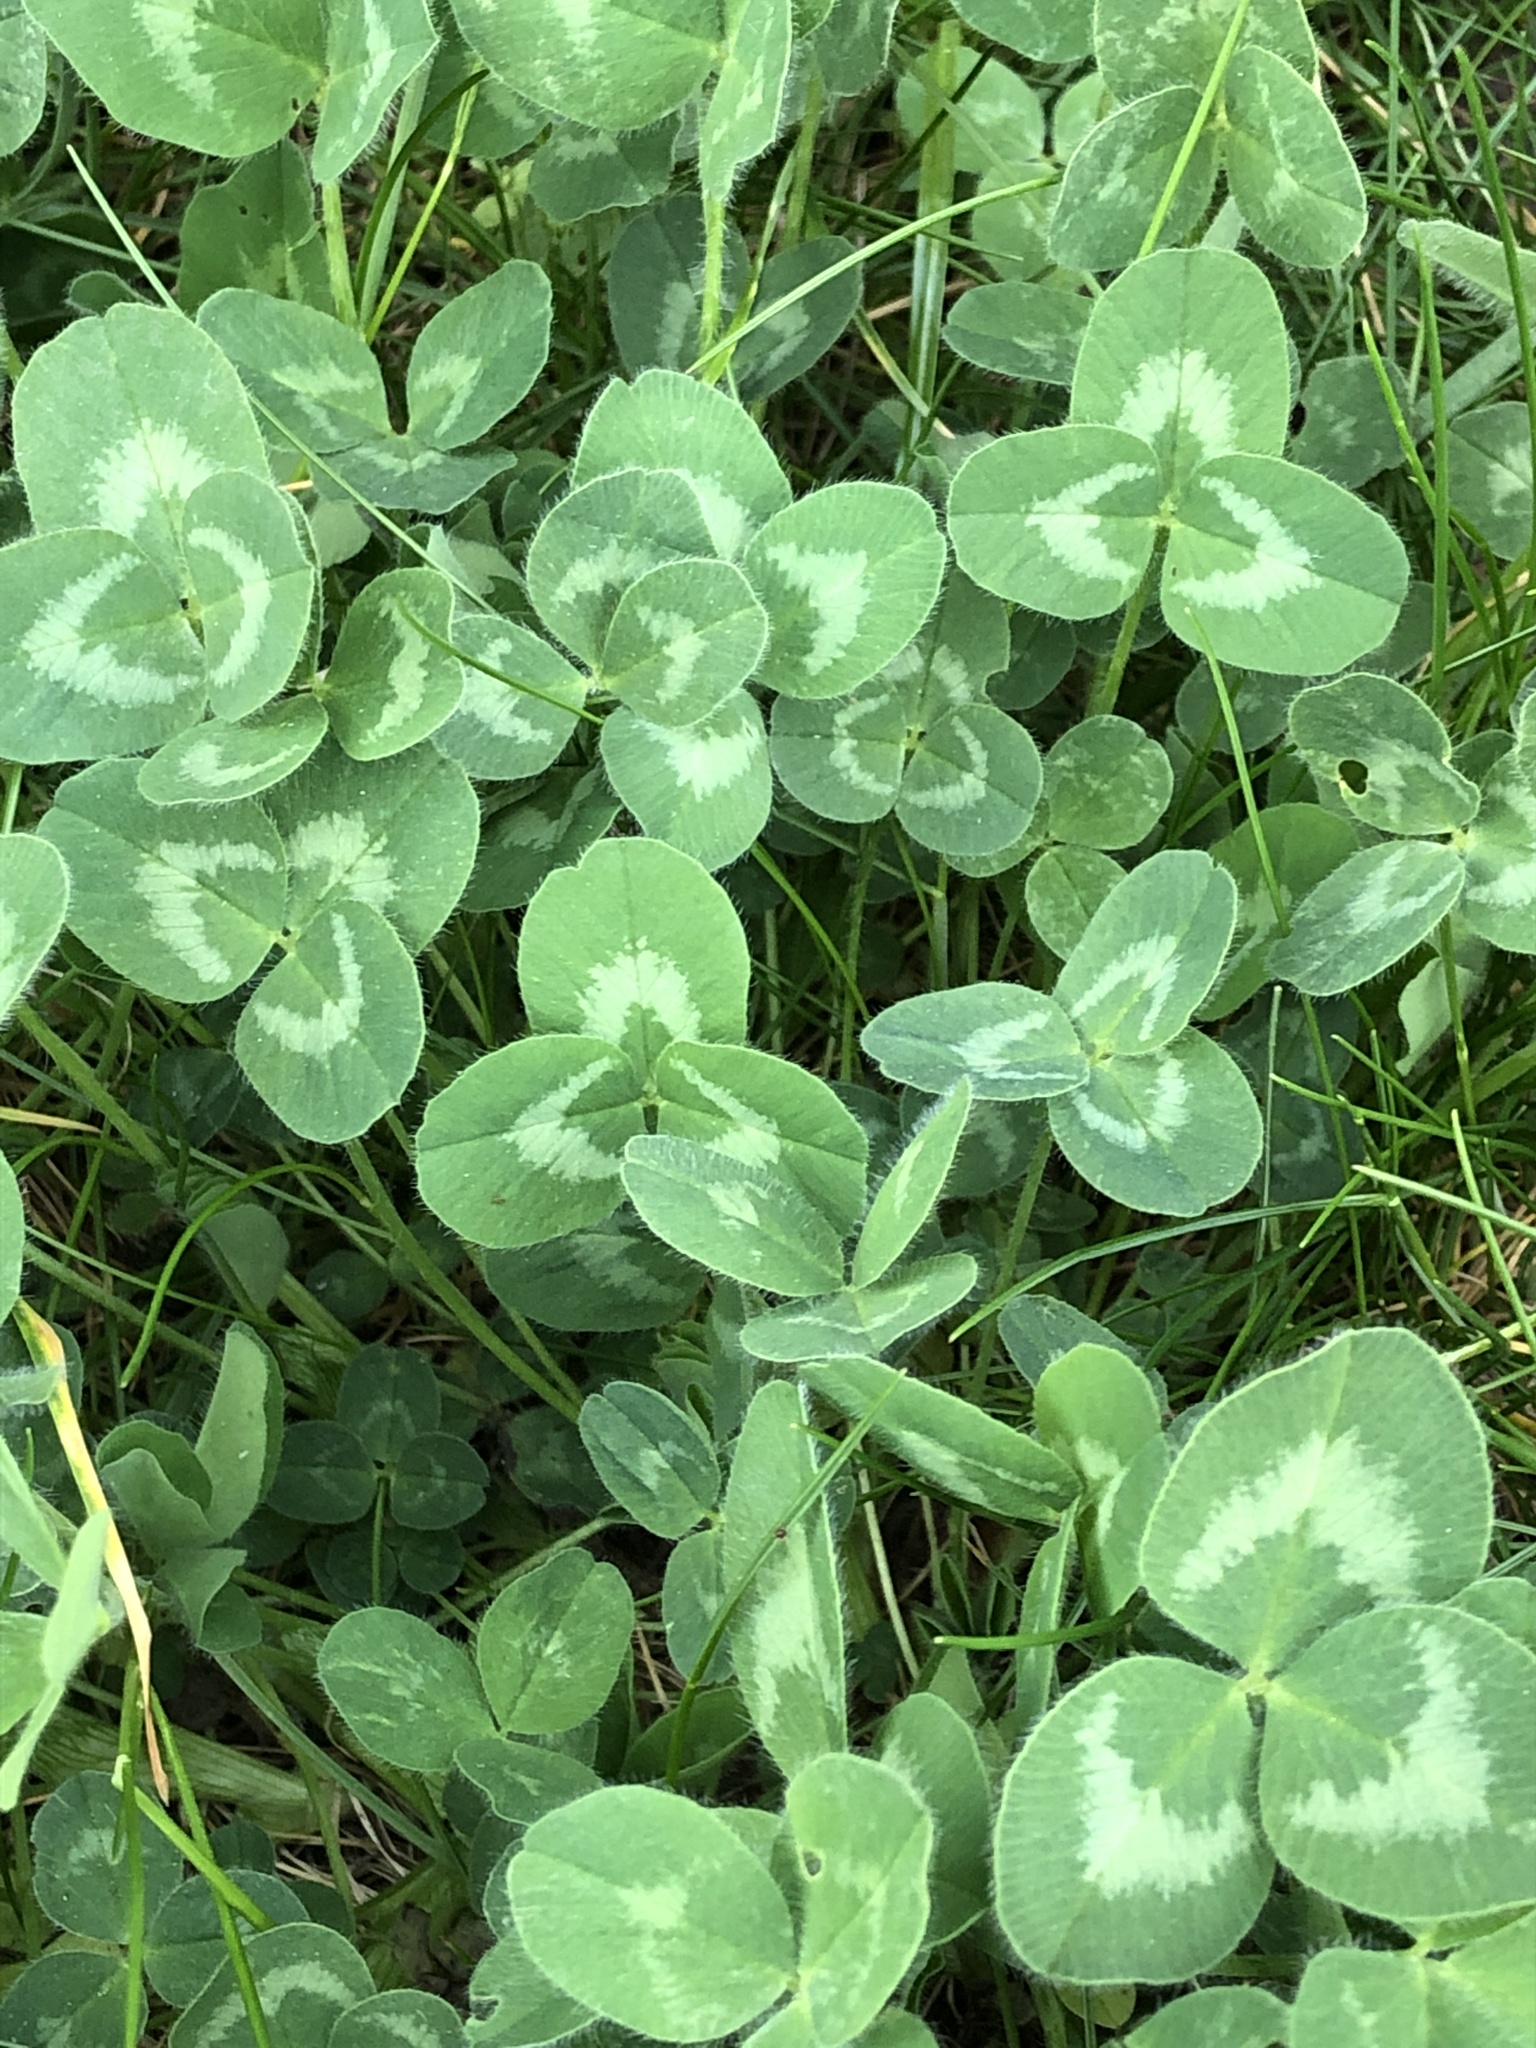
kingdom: Plantae
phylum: Tracheophyta
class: Magnoliopsida
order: Fabales
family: Fabaceae
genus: Trifolium
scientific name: Trifolium pratense
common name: Red clover
